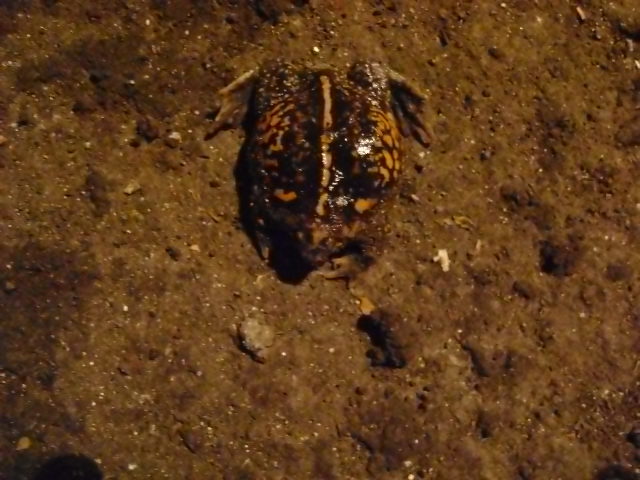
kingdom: Animalia
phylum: Chordata
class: Amphibia
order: Anura
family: Rhinophrynidae
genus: Rhinophrynus
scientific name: Rhinophrynus dorsalis
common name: Mexican burrowing toad
